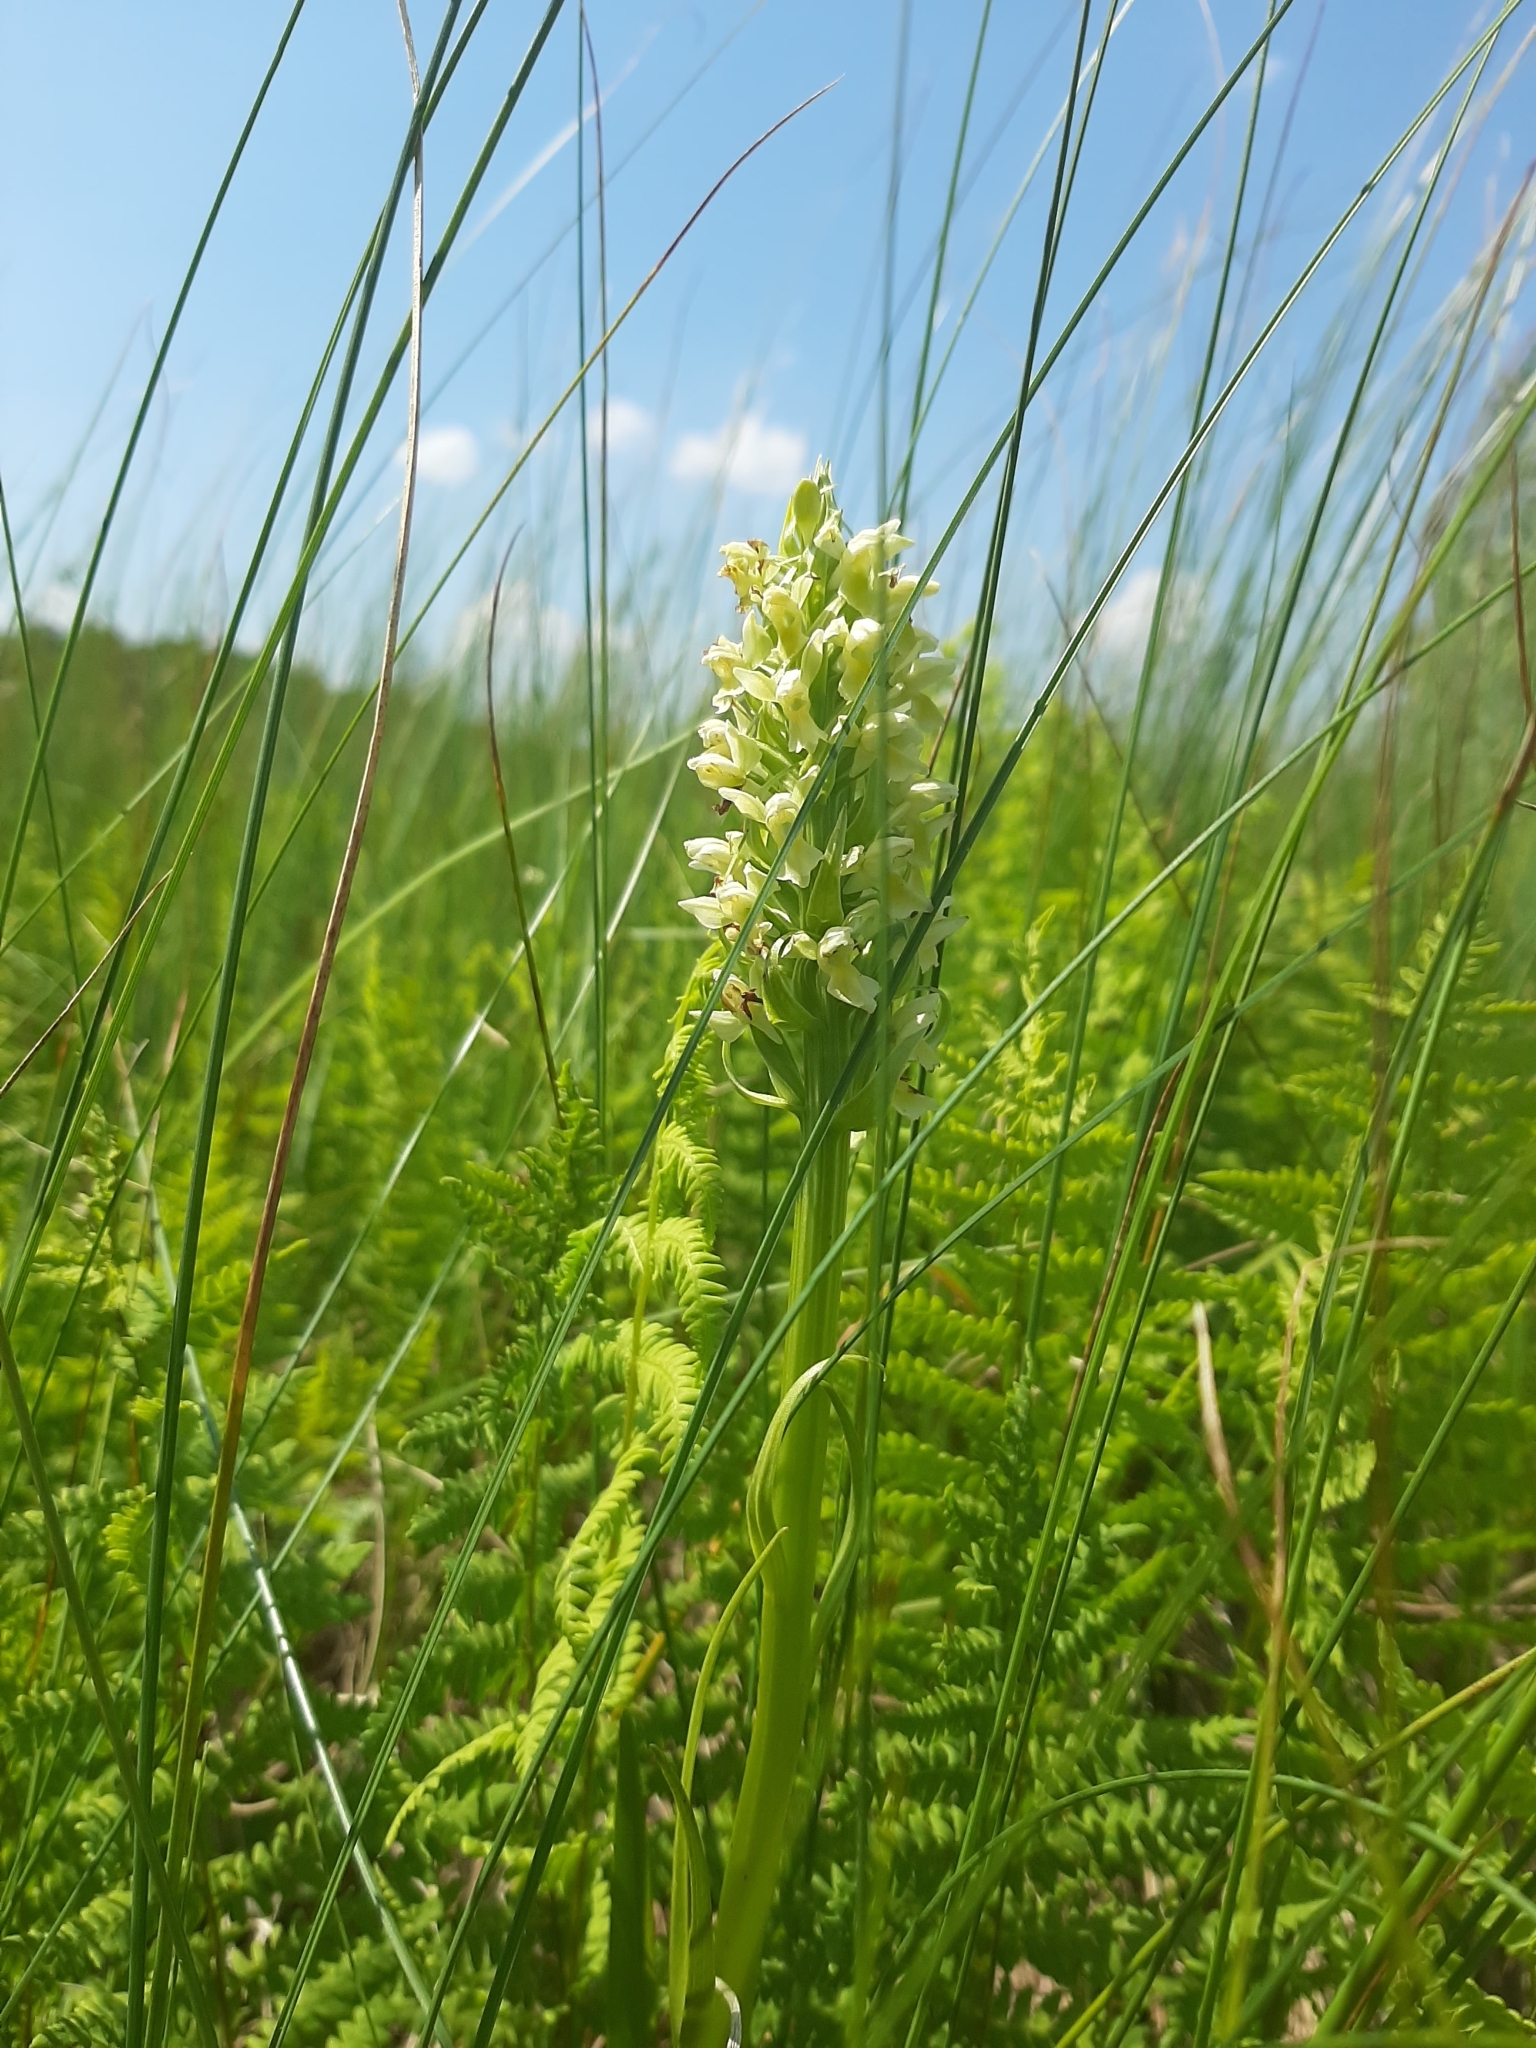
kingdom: Plantae
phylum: Tracheophyta
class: Liliopsida
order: Asparagales
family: Orchidaceae
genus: Dactylorhiza
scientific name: Dactylorhiza incarnata
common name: Early marsh-orchid
